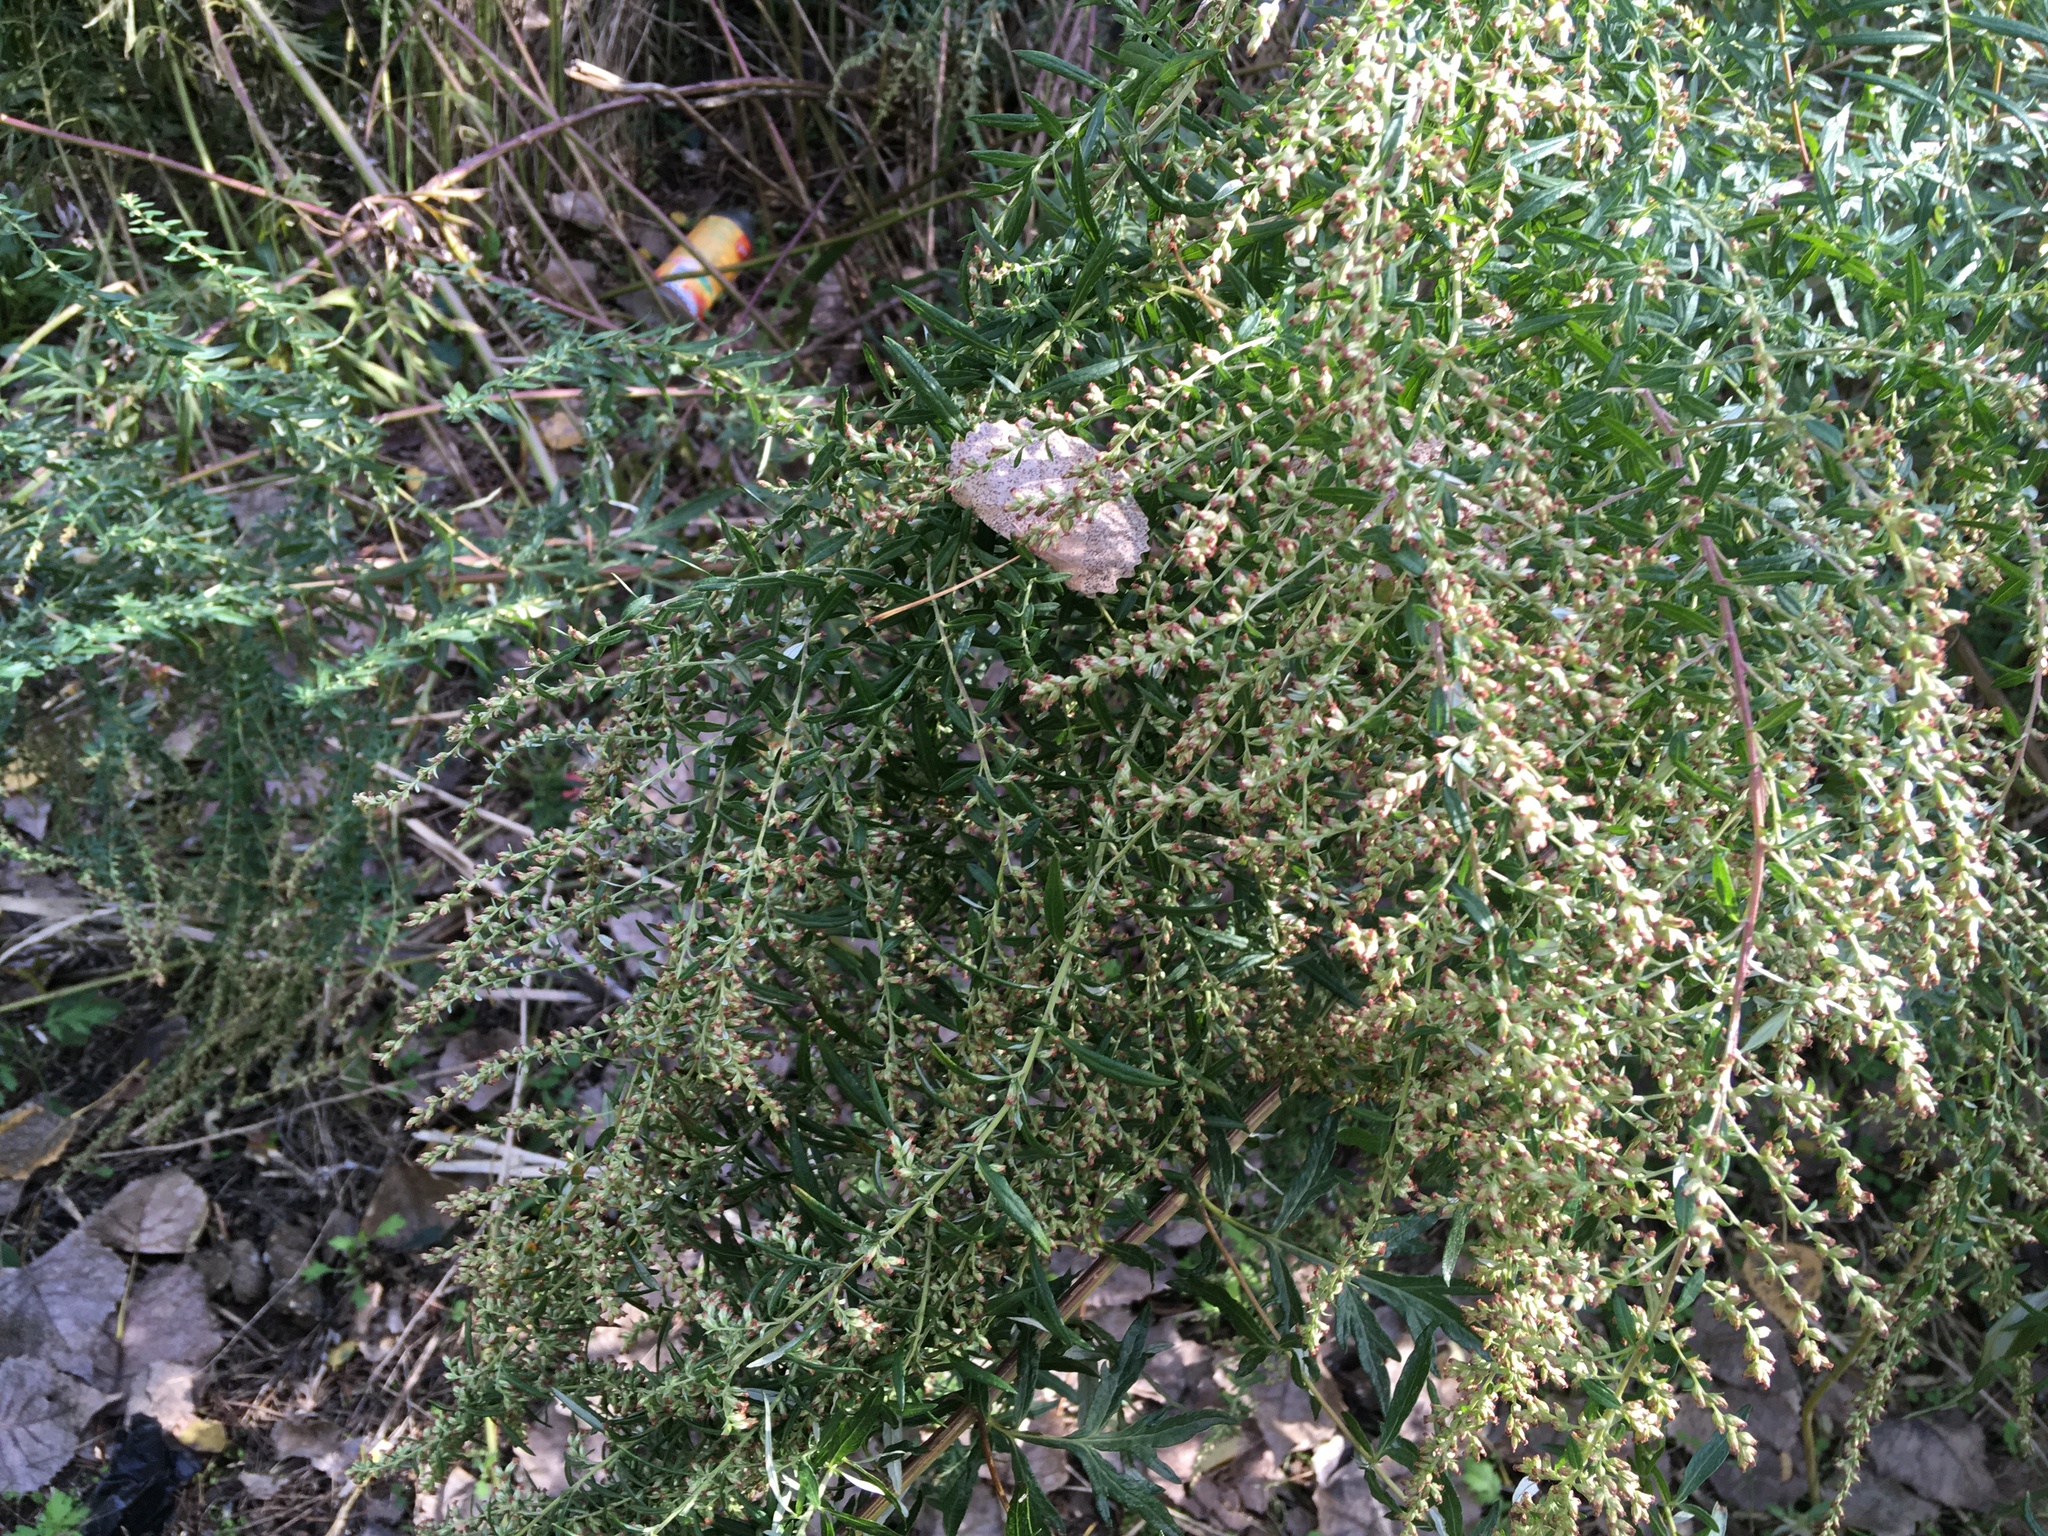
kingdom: Plantae
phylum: Tracheophyta
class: Magnoliopsida
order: Asterales
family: Asteraceae
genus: Artemisia
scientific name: Artemisia vulgaris
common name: Mugwort
